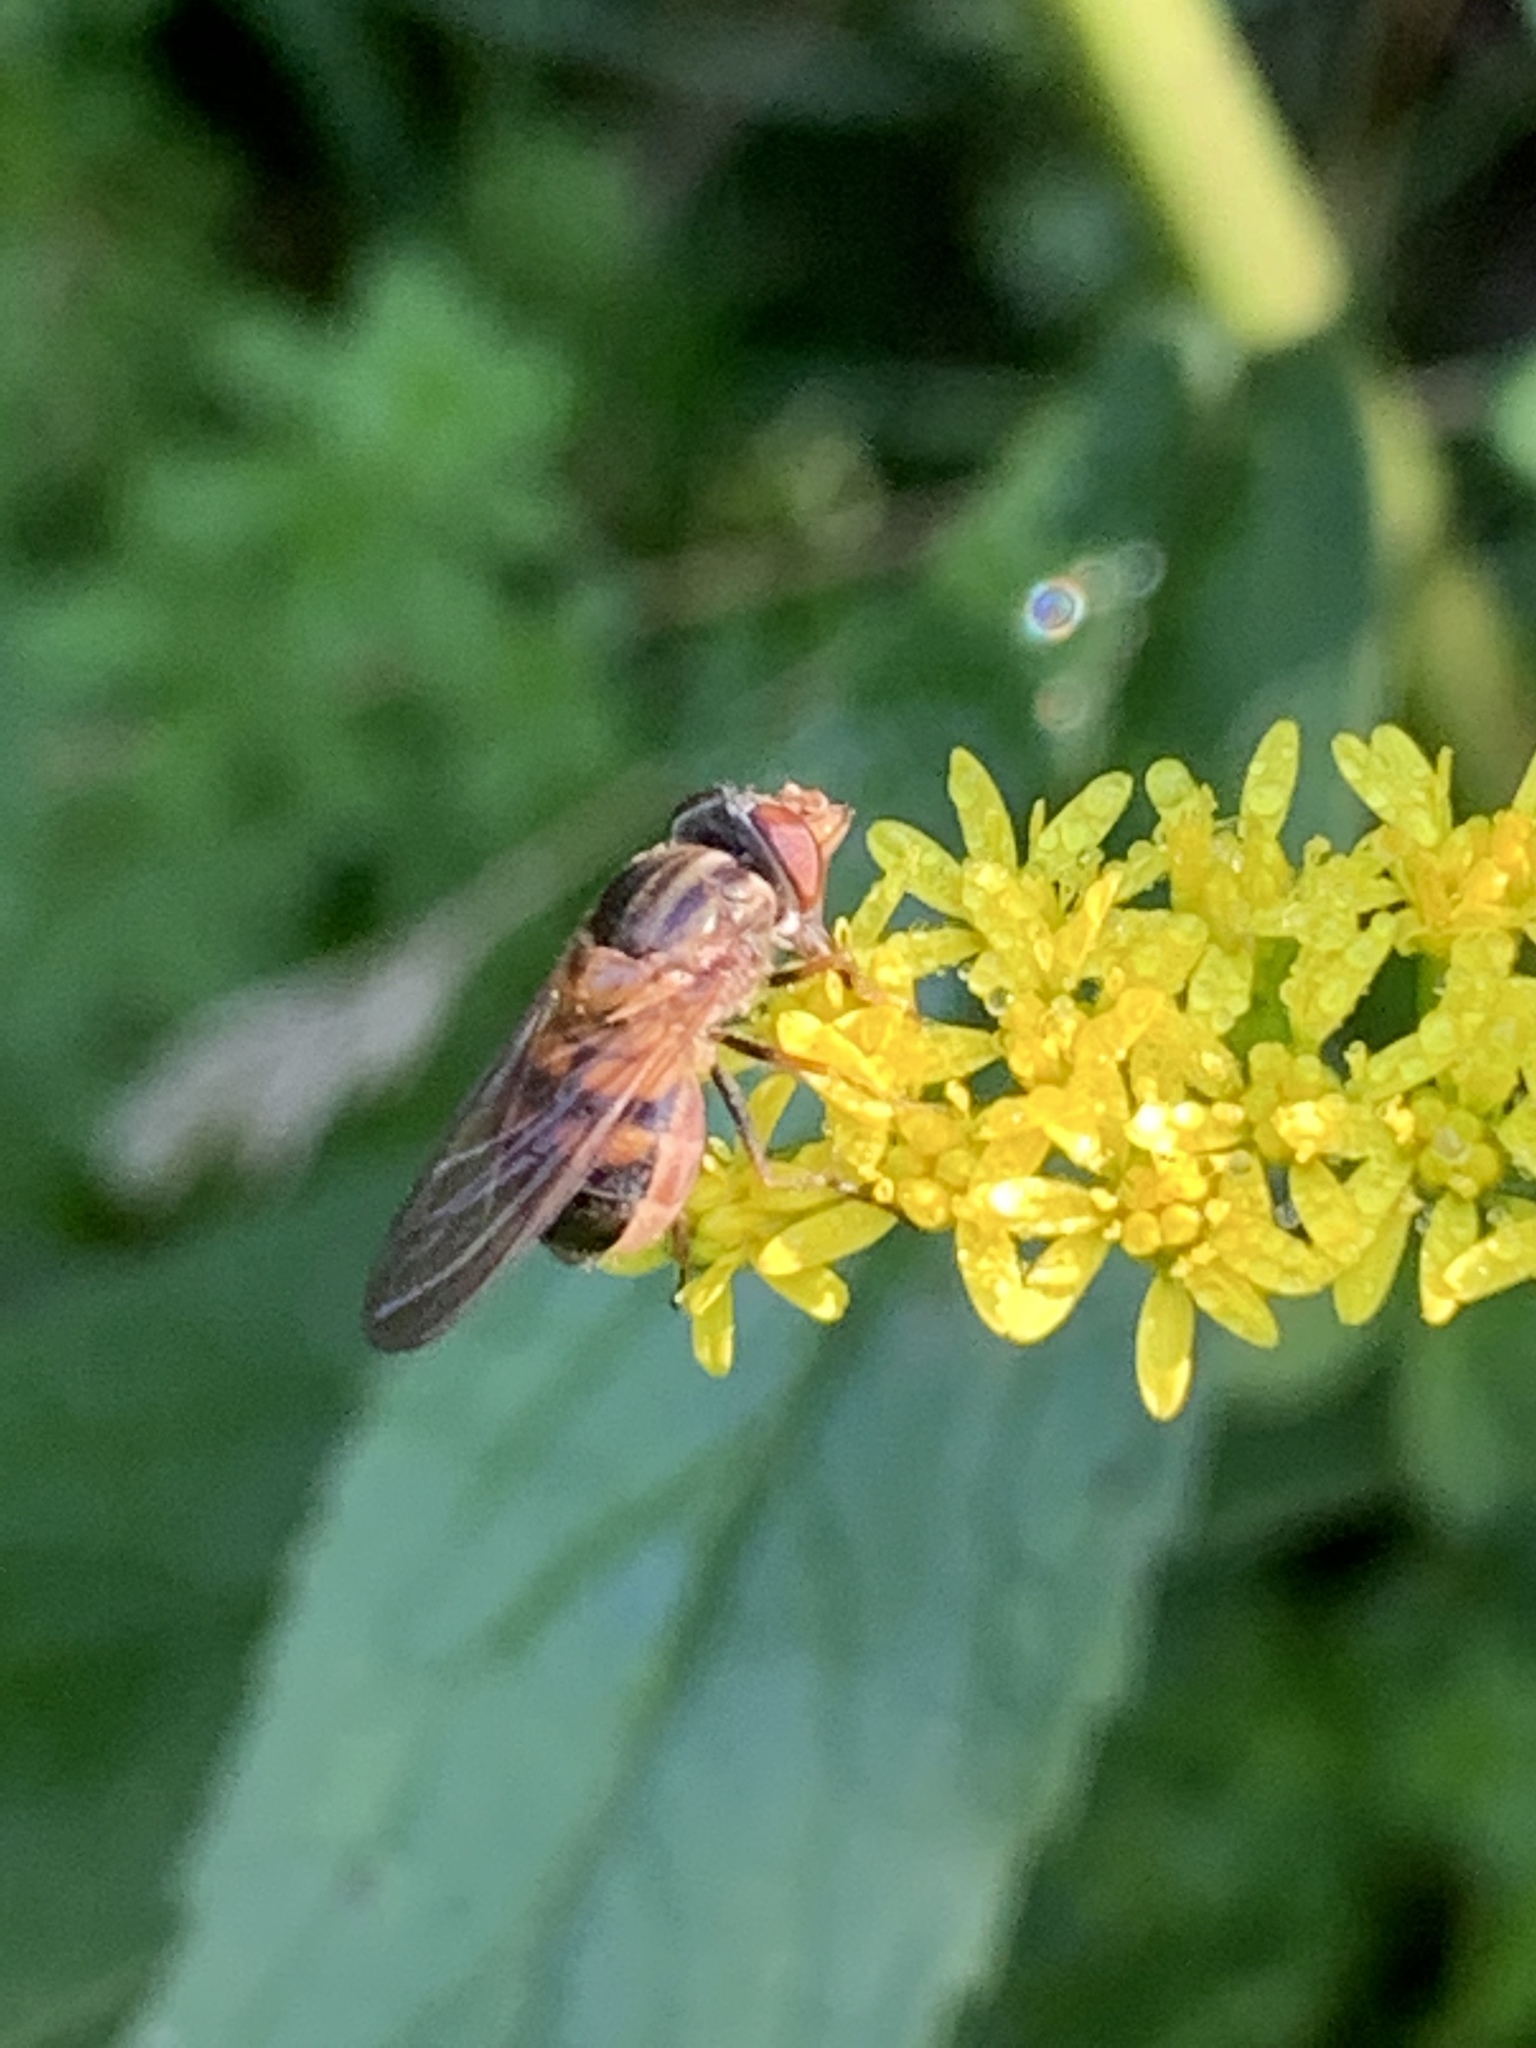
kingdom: Animalia
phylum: Arthropoda
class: Insecta
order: Diptera
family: Syrphidae
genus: Rhingia
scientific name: Rhingia nasica
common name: American snout fly
